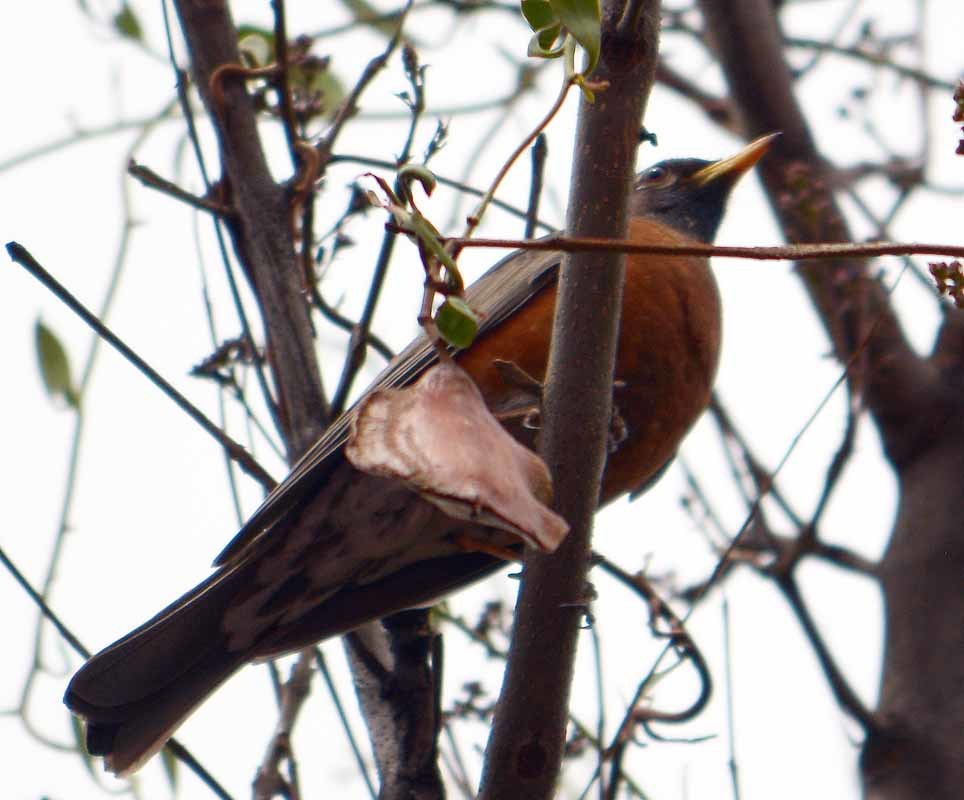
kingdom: Animalia
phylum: Chordata
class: Aves
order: Passeriformes
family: Turdidae
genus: Turdus
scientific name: Turdus migratorius
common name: American robin
